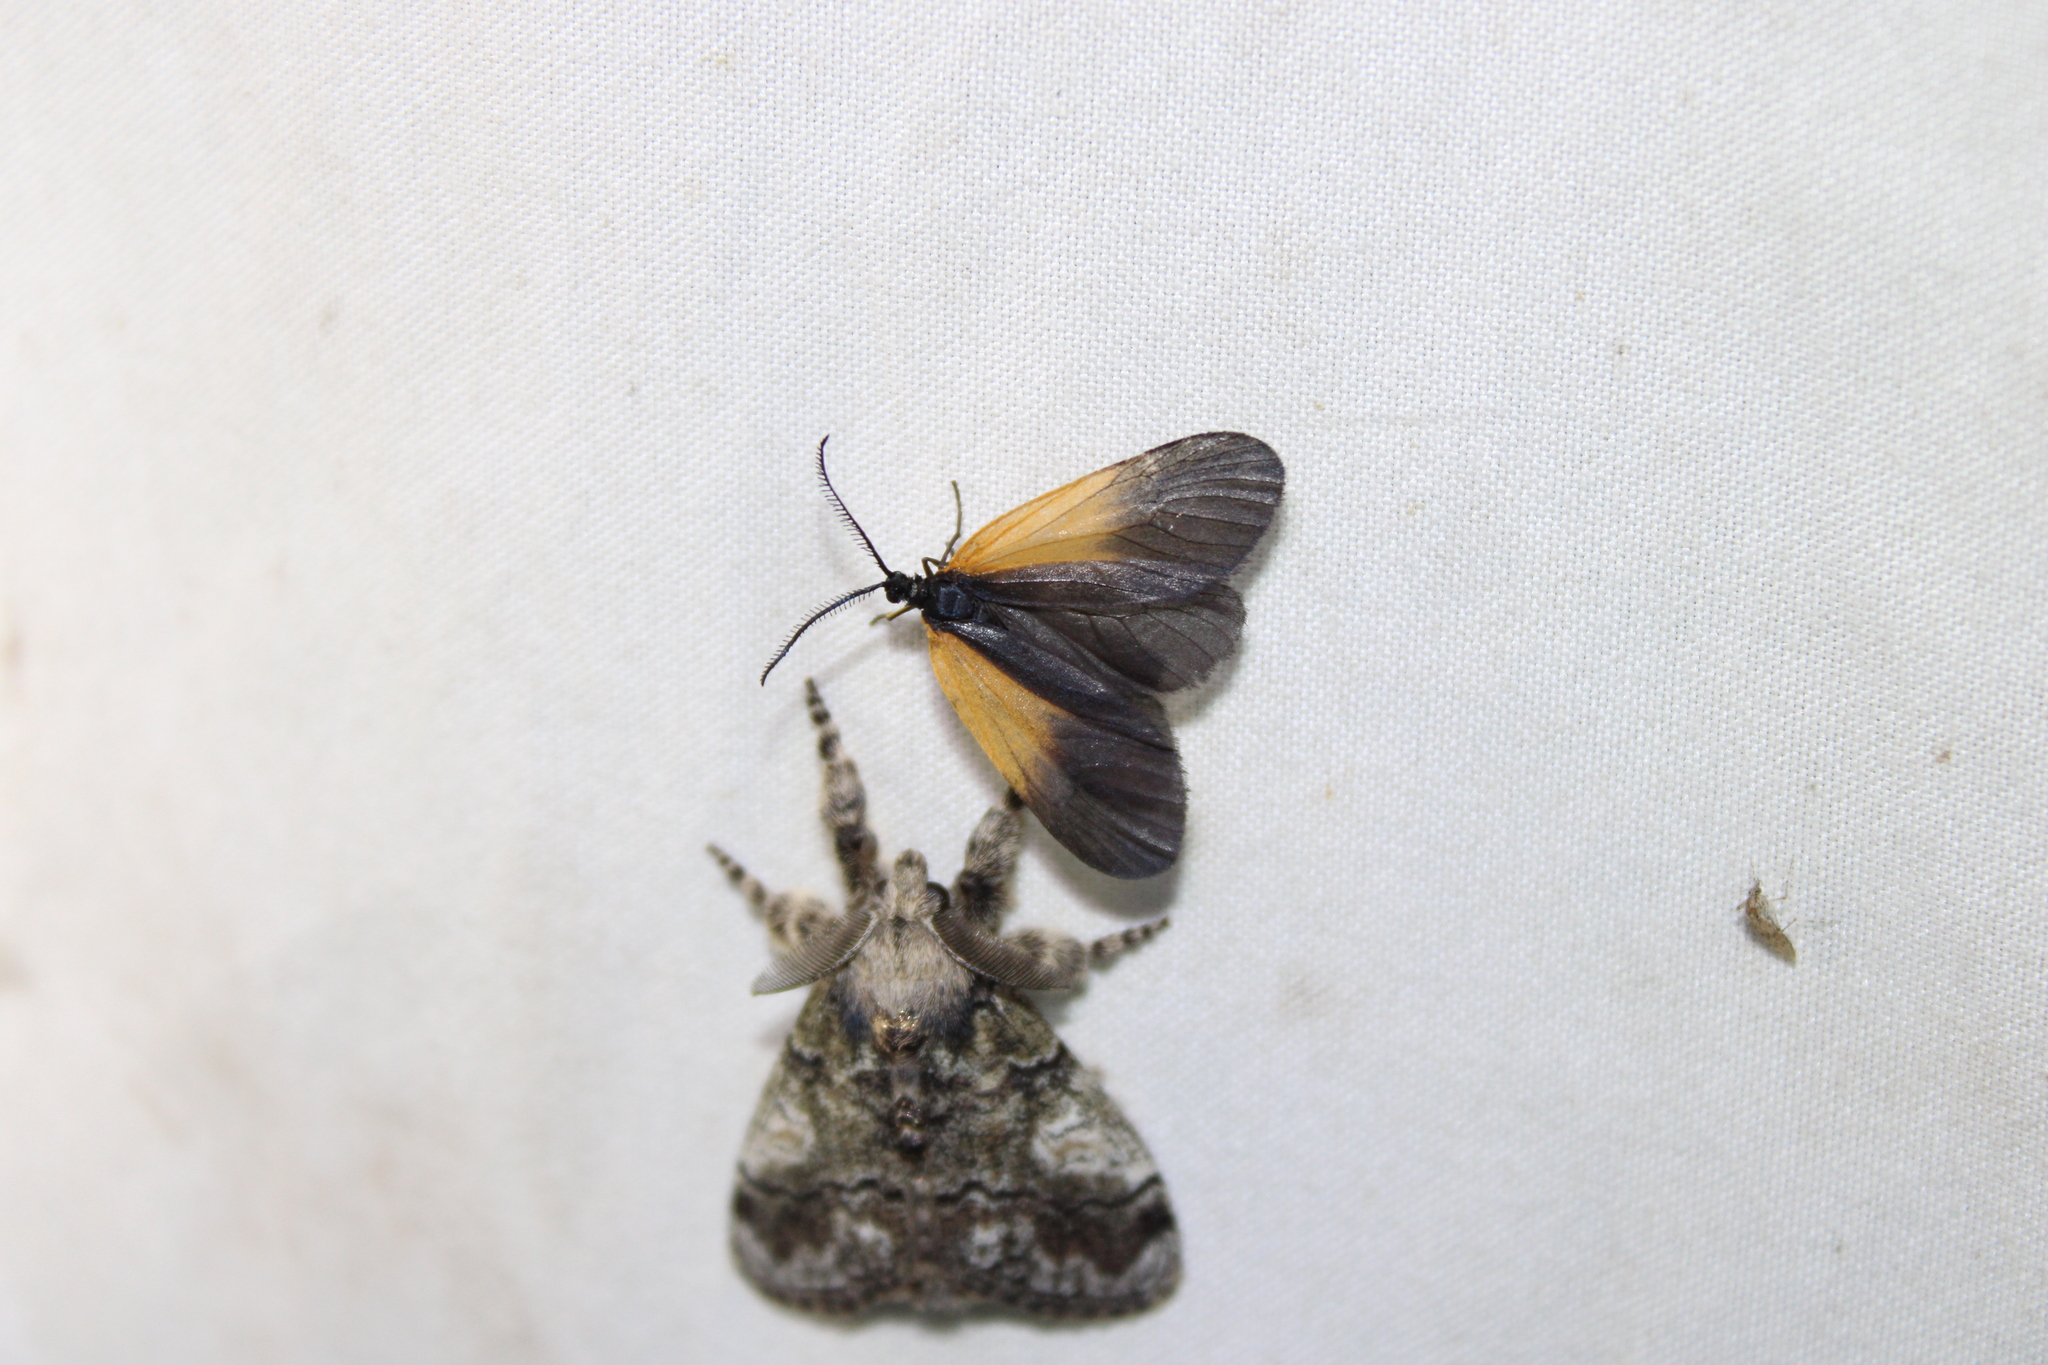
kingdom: Animalia
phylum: Arthropoda
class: Insecta
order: Lepidoptera
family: Zygaenidae
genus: Malthaca
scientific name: Malthaca dimidiata
